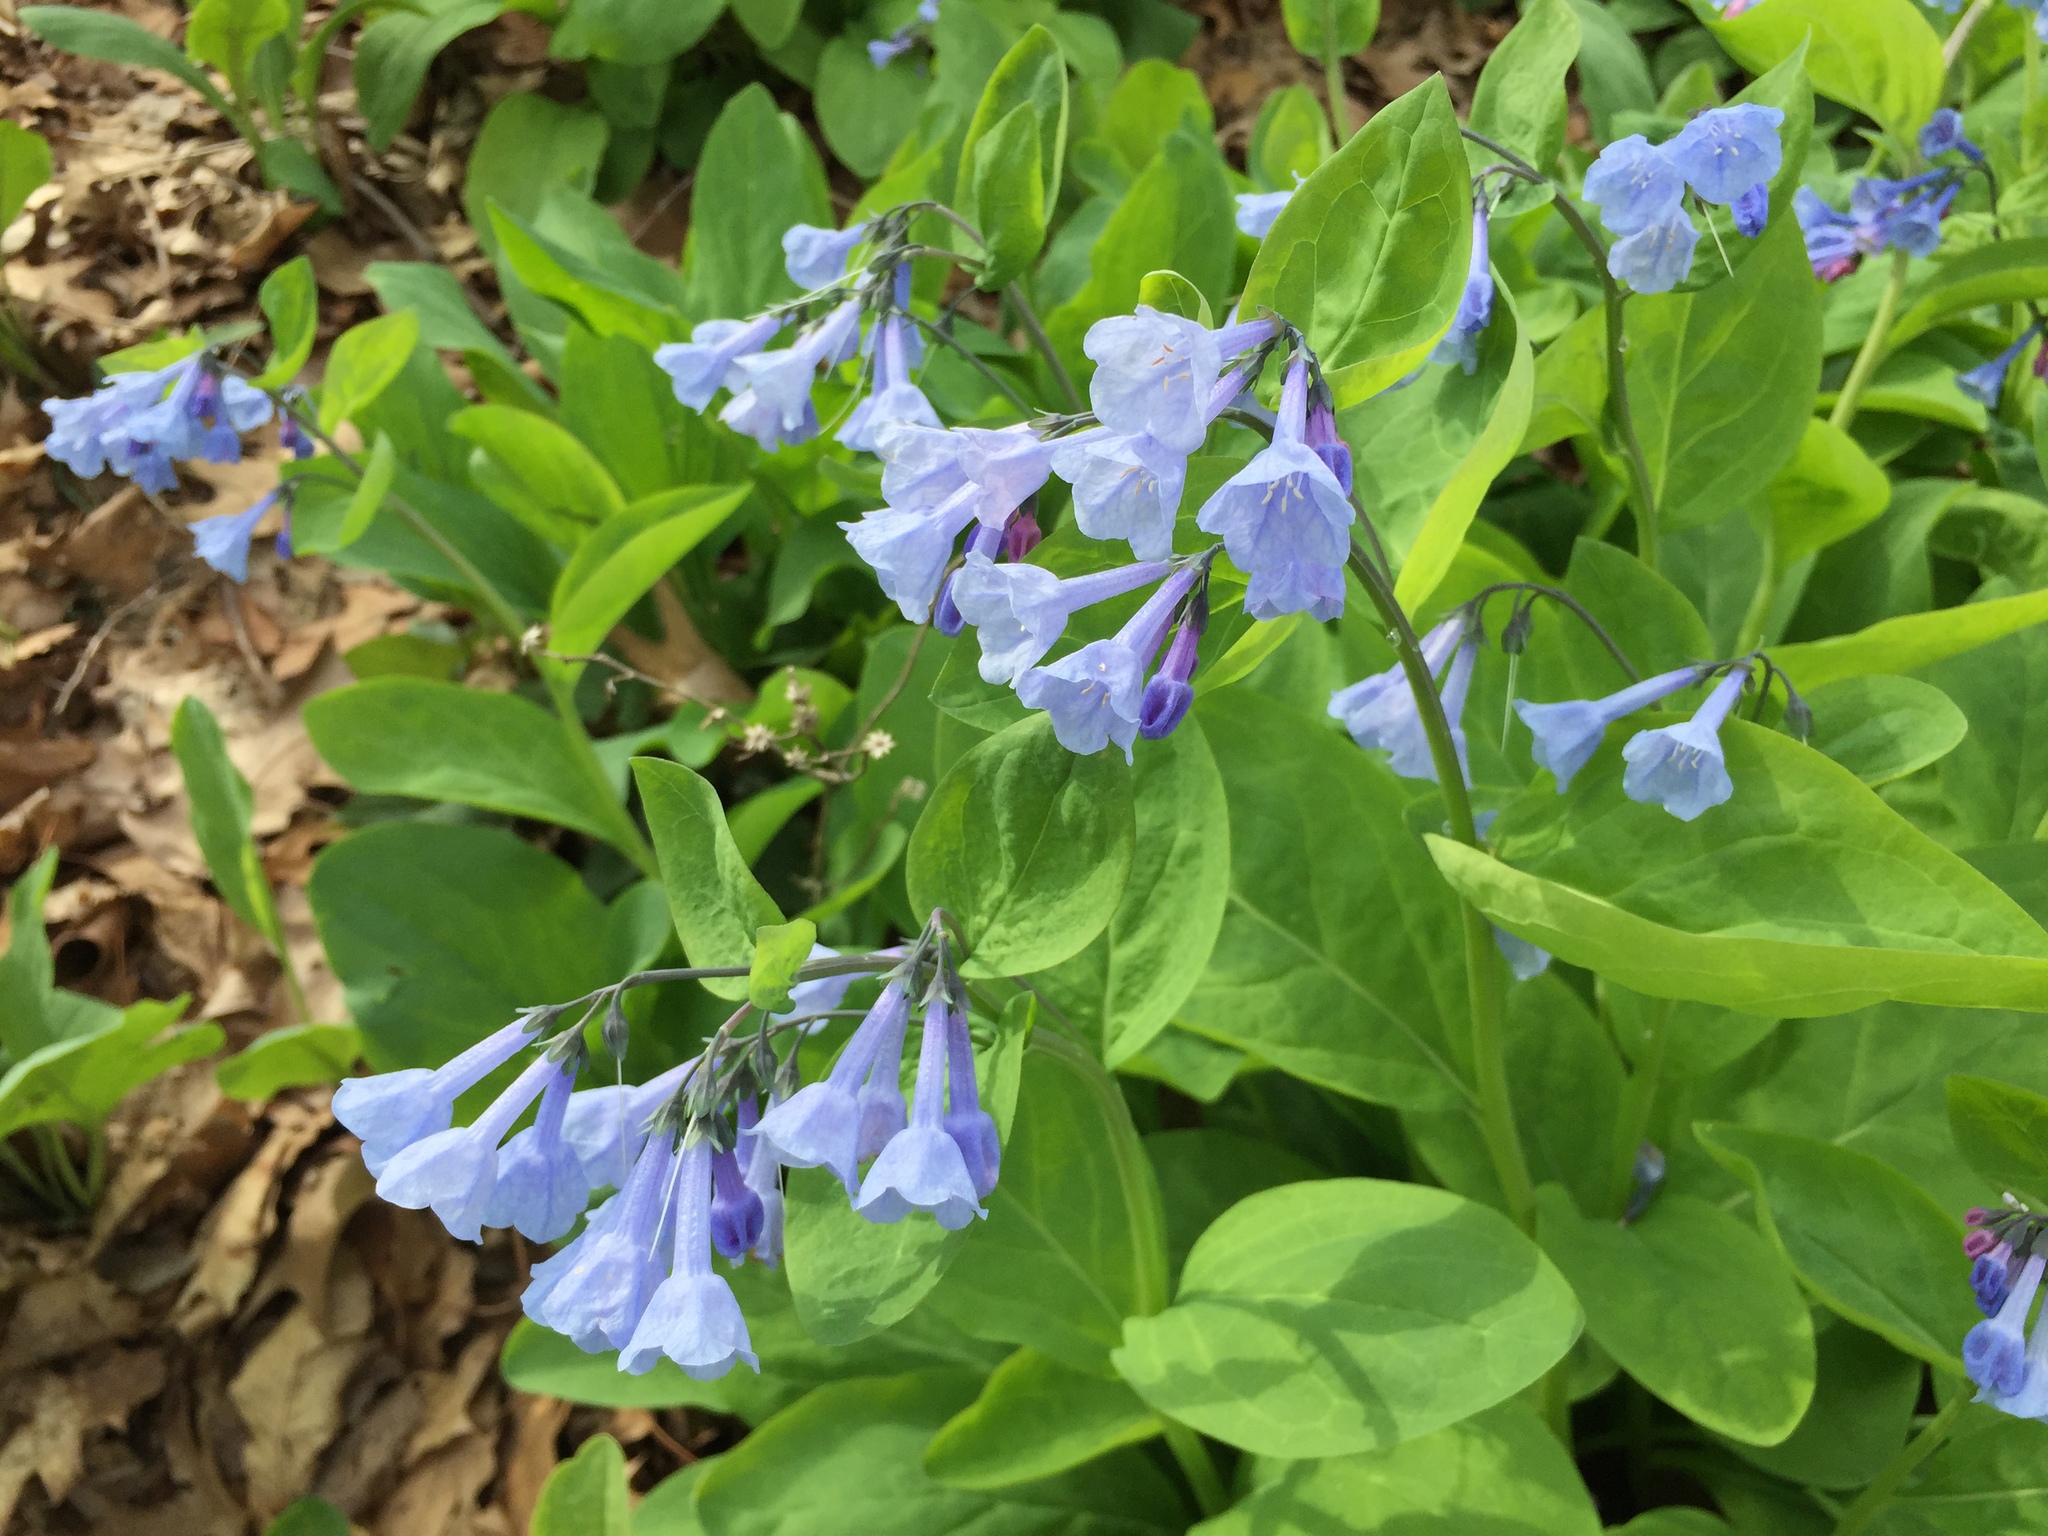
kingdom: Plantae
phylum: Tracheophyta
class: Magnoliopsida
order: Boraginales
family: Boraginaceae
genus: Mertensia
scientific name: Mertensia virginica
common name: Virginia bluebells
